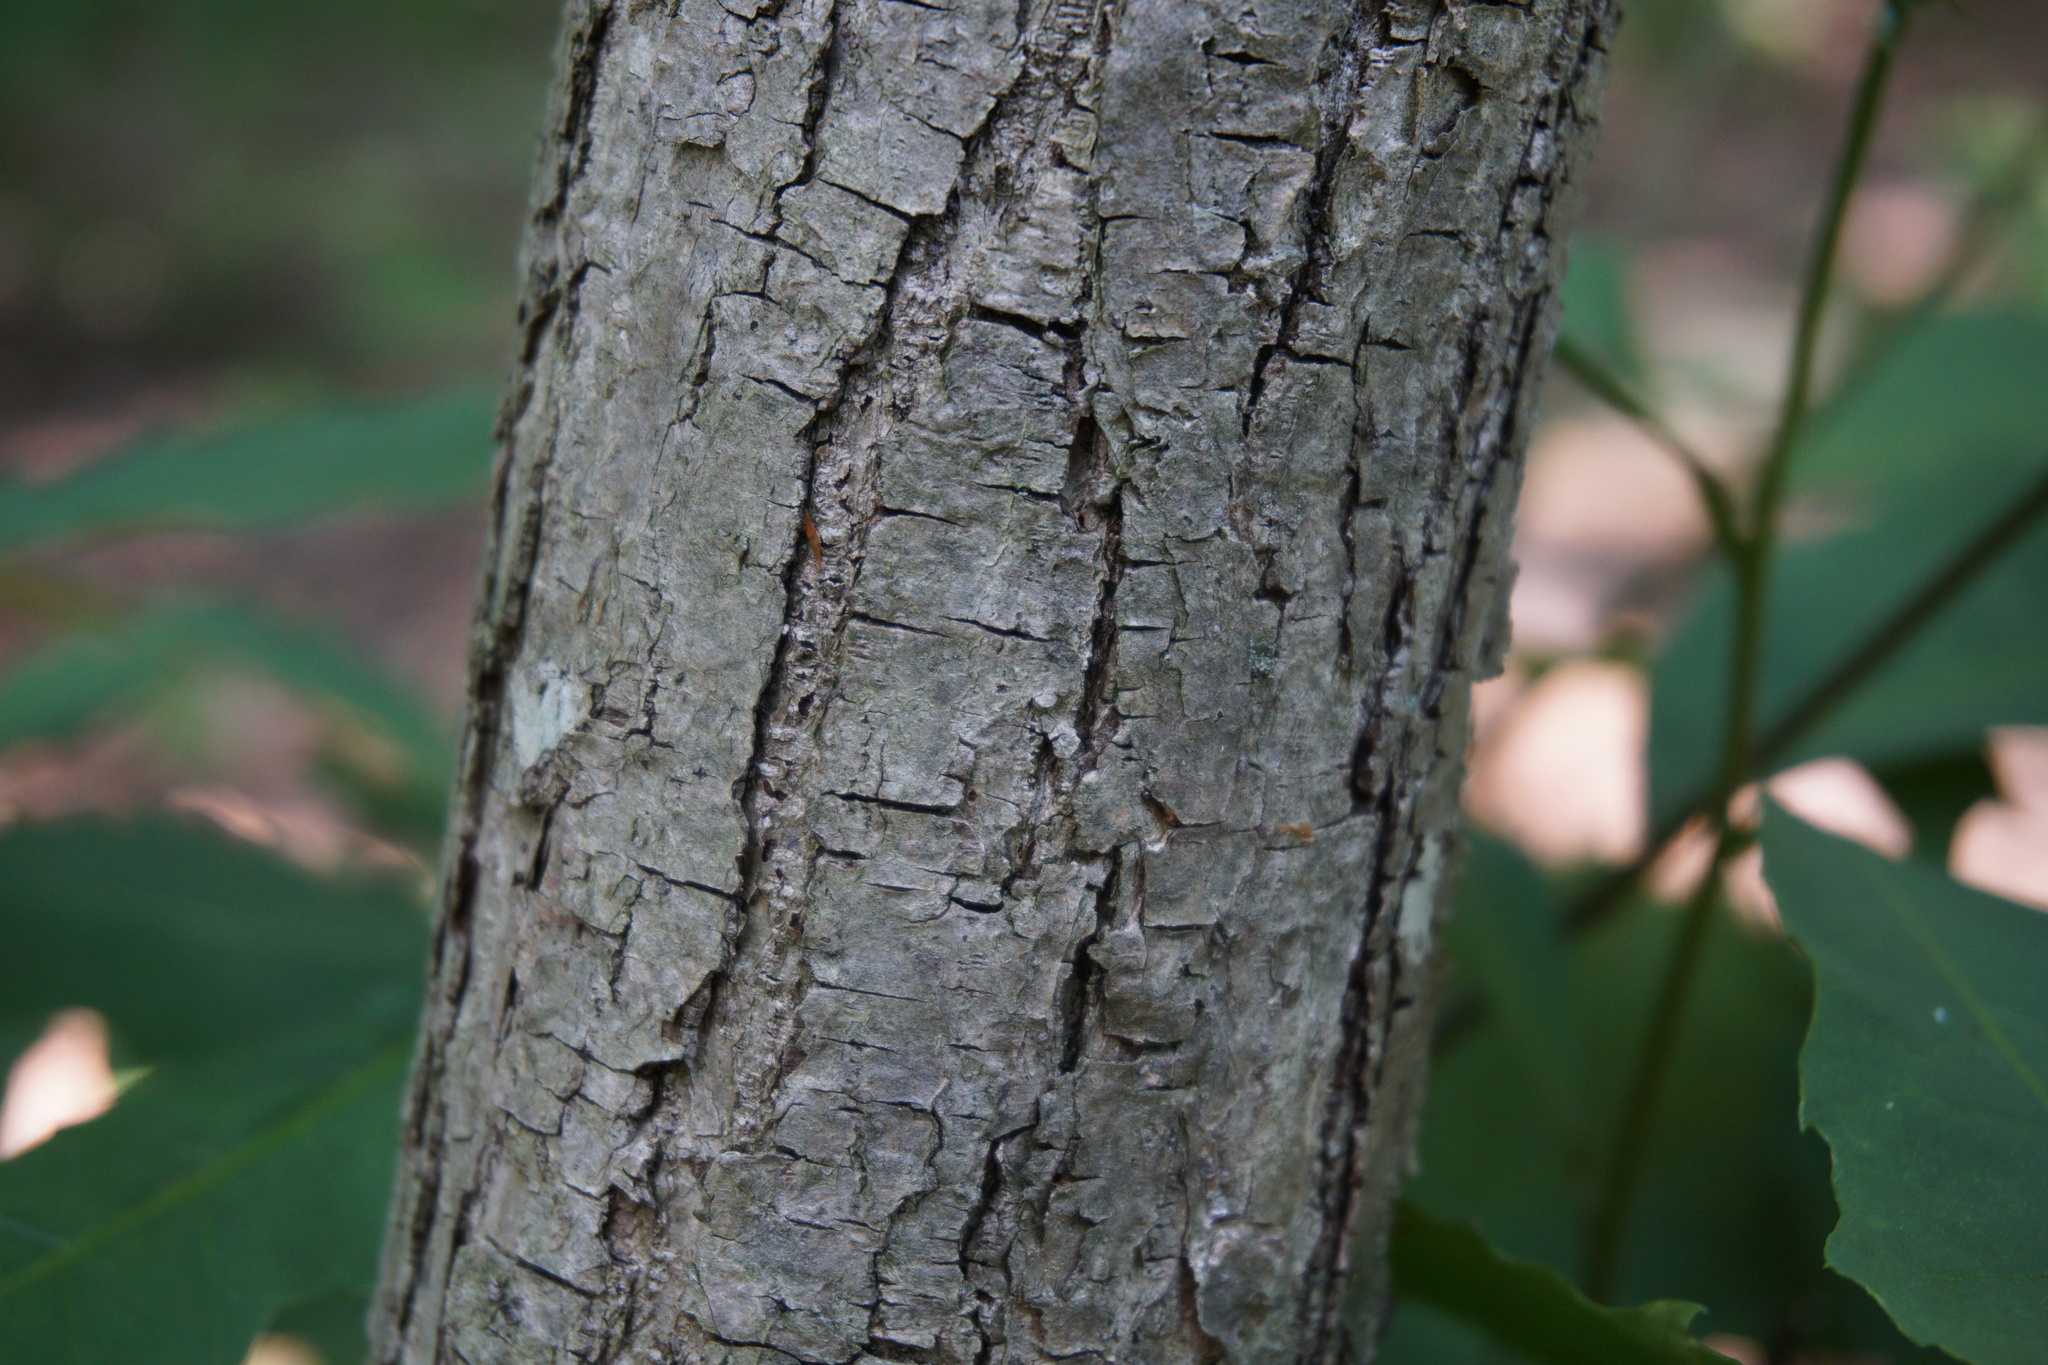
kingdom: Plantae
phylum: Tracheophyta
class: Magnoliopsida
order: Fagales
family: Fagaceae
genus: Castanea
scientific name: Castanea dentata
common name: American chestnut
